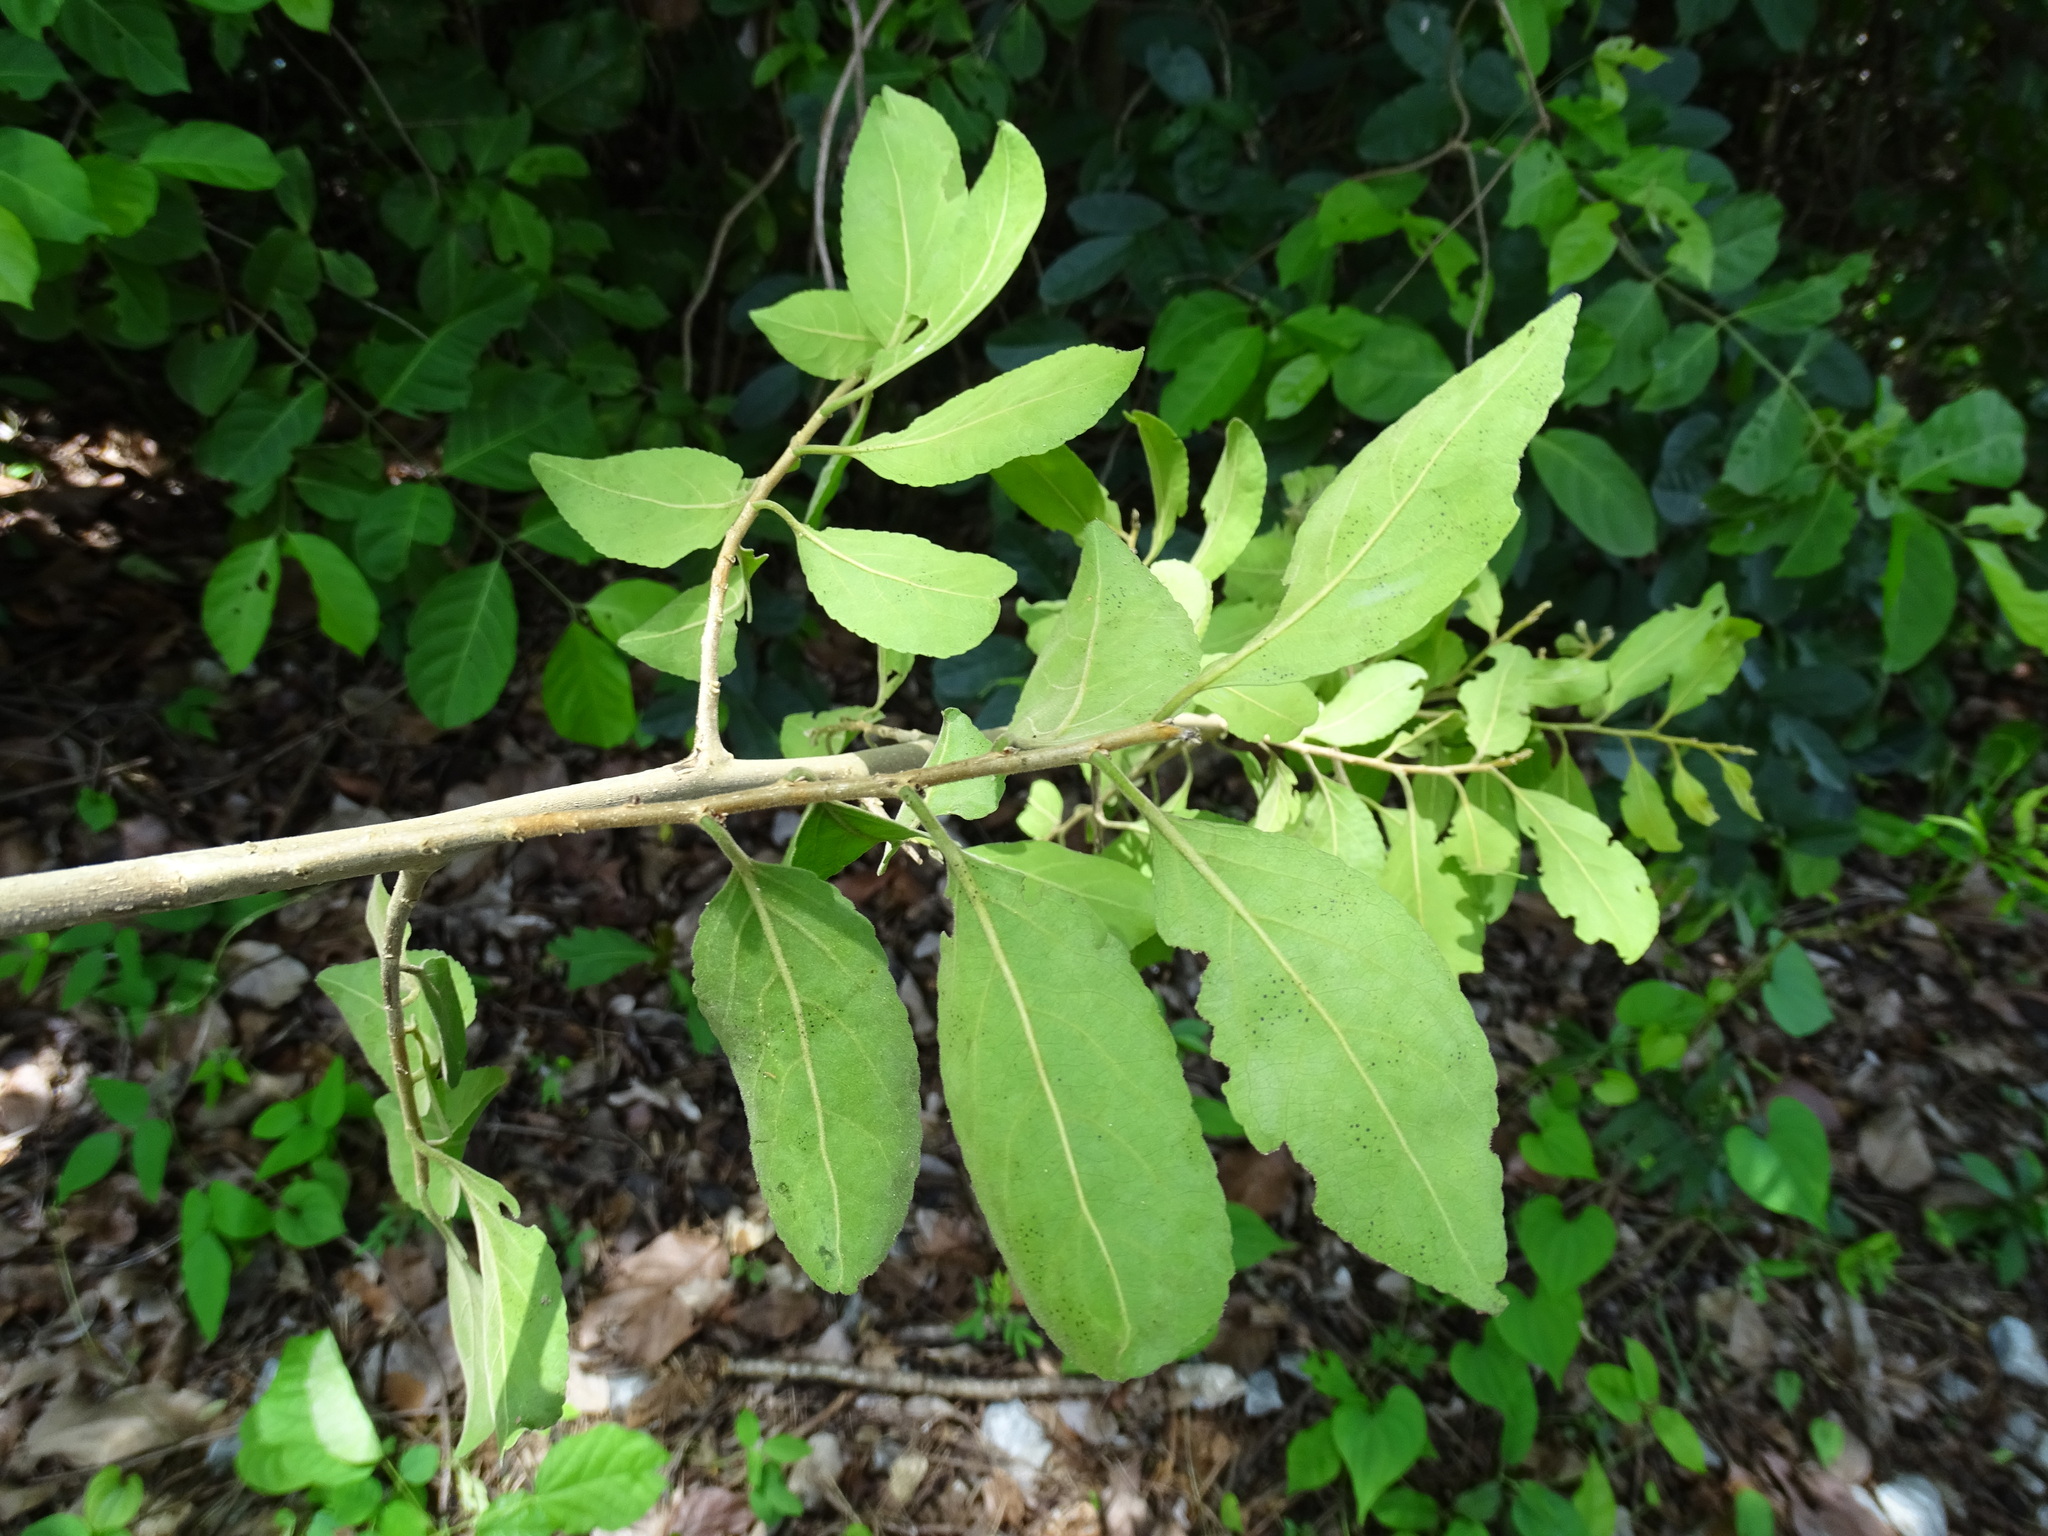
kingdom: Plantae
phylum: Tracheophyta
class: Magnoliopsida
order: Malpighiales
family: Salicaceae
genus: Xylosma
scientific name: Xylosma velutina
